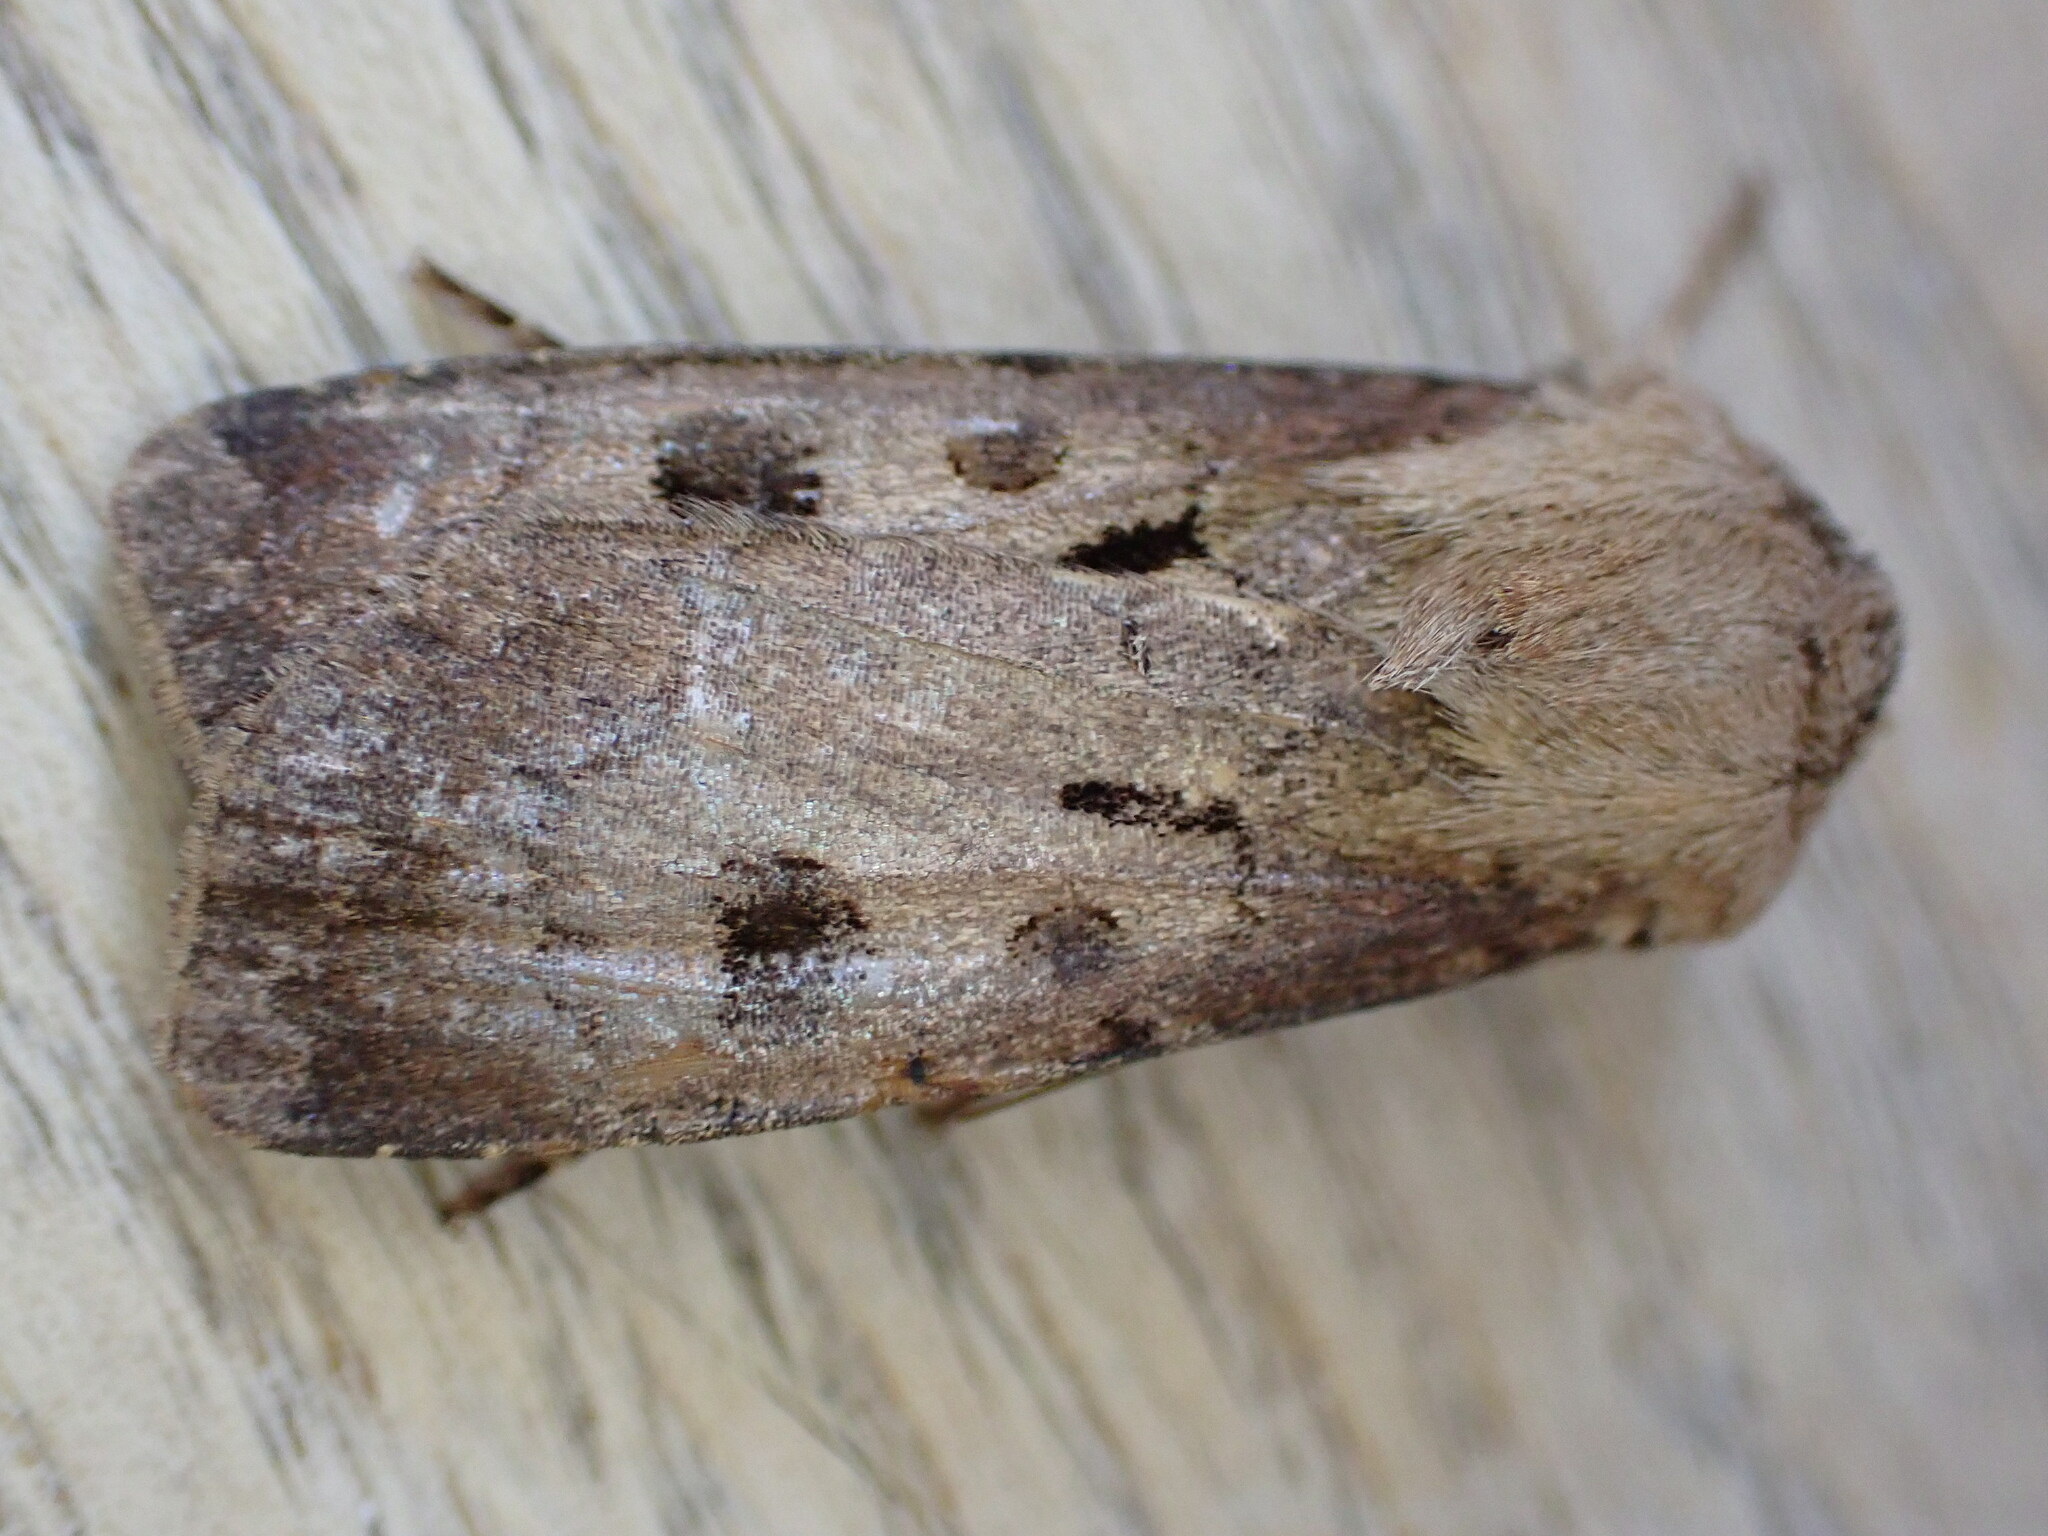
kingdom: Animalia
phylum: Arthropoda
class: Insecta
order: Lepidoptera
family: Noctuidae
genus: Agrotis
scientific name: Agrotis exclamationis
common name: Heart and dart
